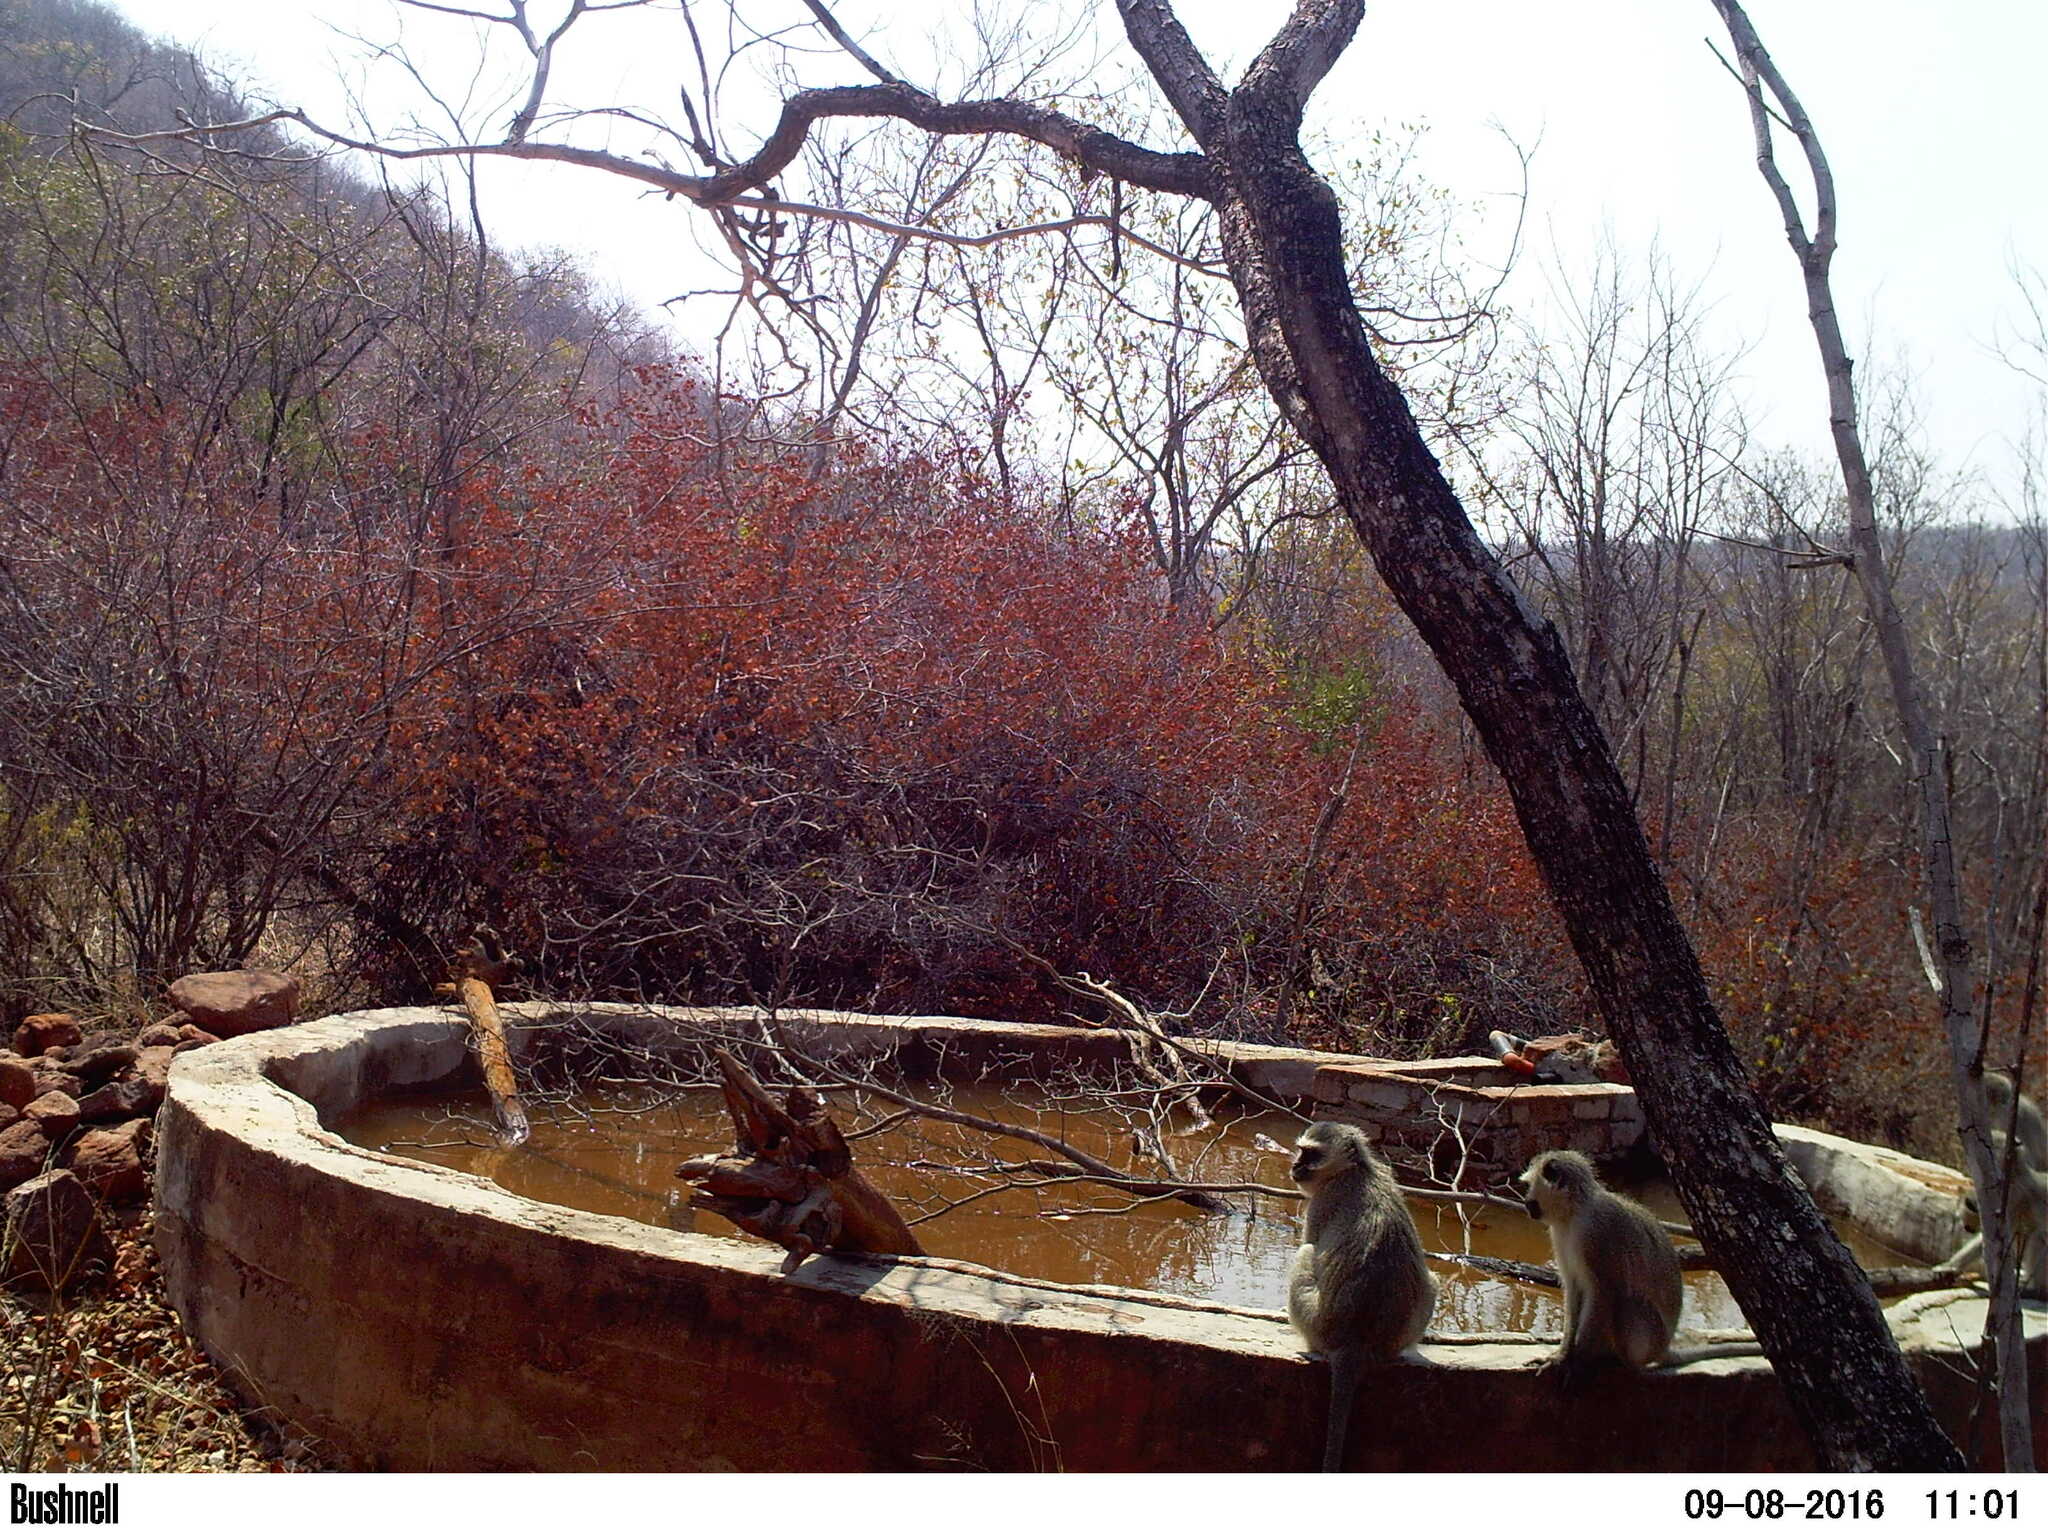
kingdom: Animalia
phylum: Chordata
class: Mammalia
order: Primates
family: Cercopithecidae
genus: Chlorocebus
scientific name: Chlorocebus pygerythrus
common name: Vervet monkey
